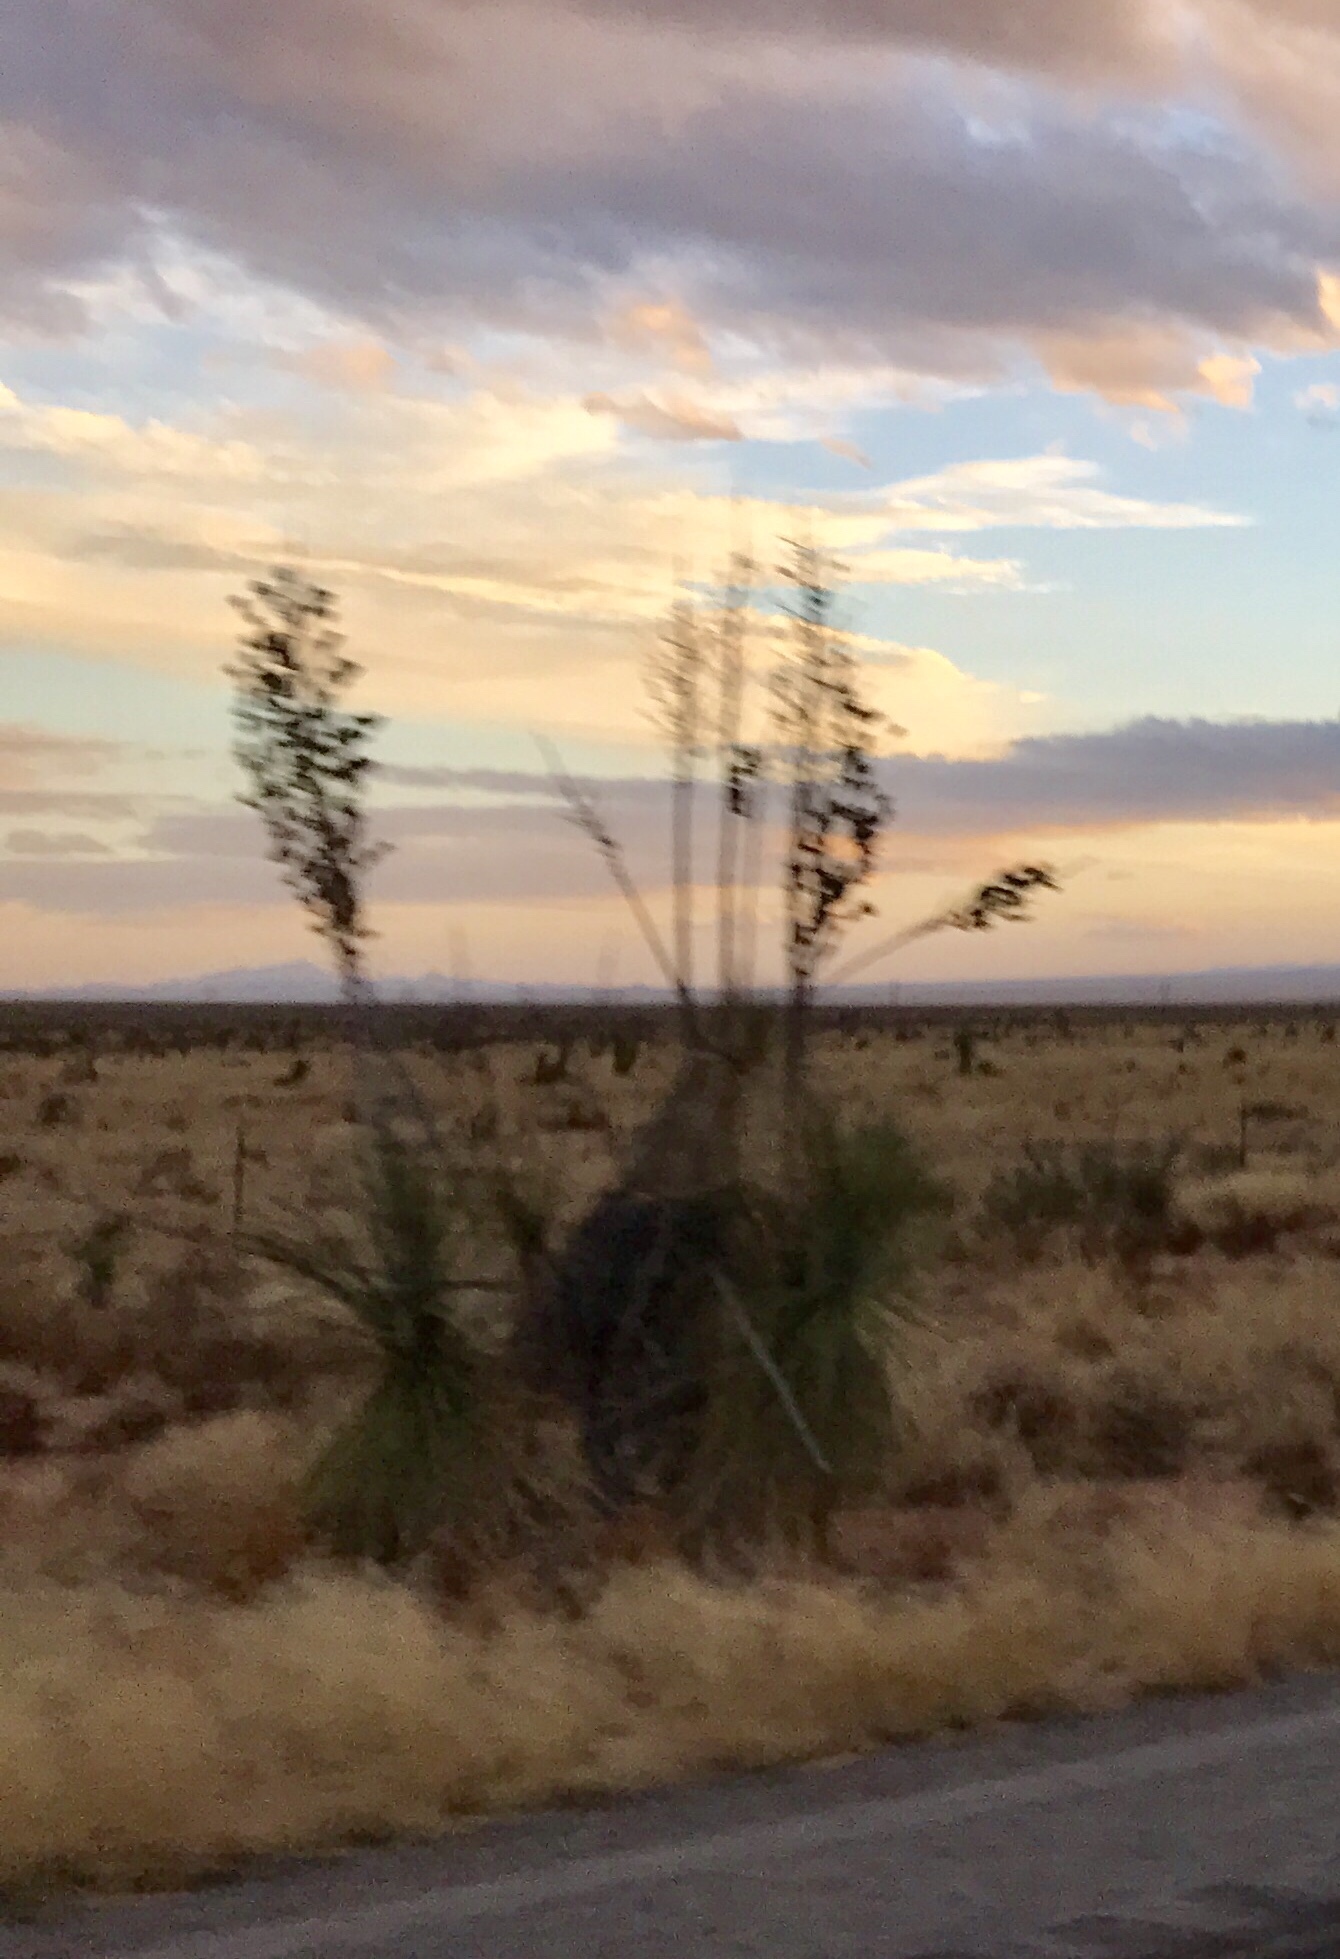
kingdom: Plantae
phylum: Tracheophyta
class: Liliopsida
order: Asparagales
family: Asparagaceae
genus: Yucca
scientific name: Yucca elata
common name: Palmella
